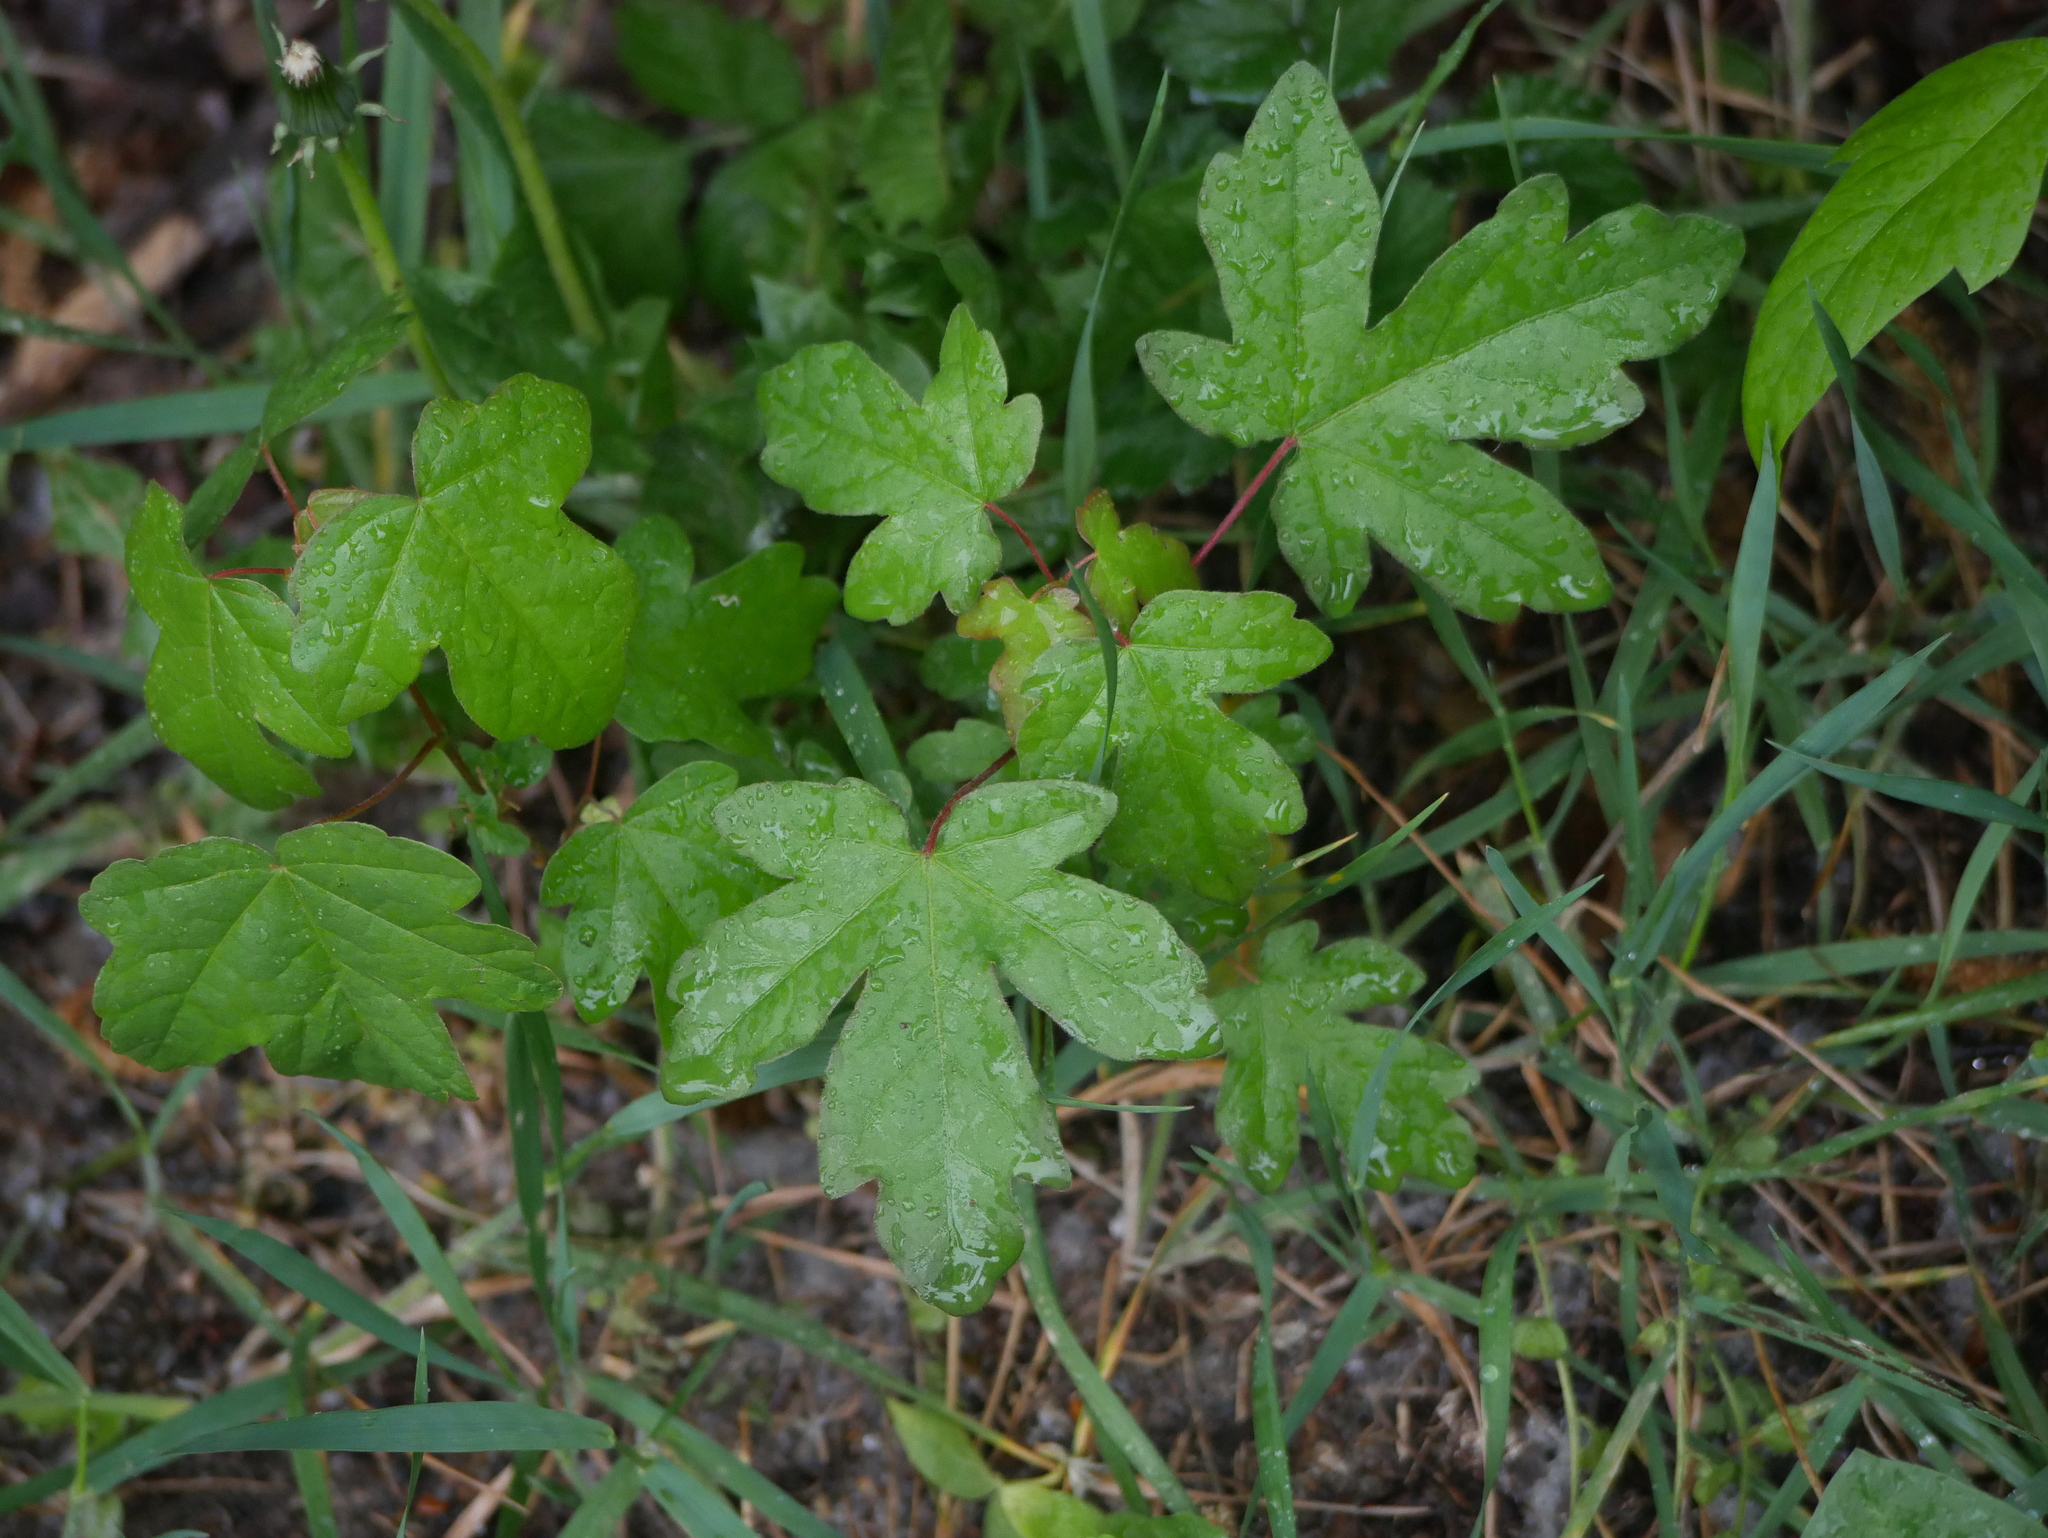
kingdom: Plantae
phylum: Tracheophyta
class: Magnoliopsida
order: Sapindales
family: Sapindaceae
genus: Acer
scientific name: Acer campestre
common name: Field maple
